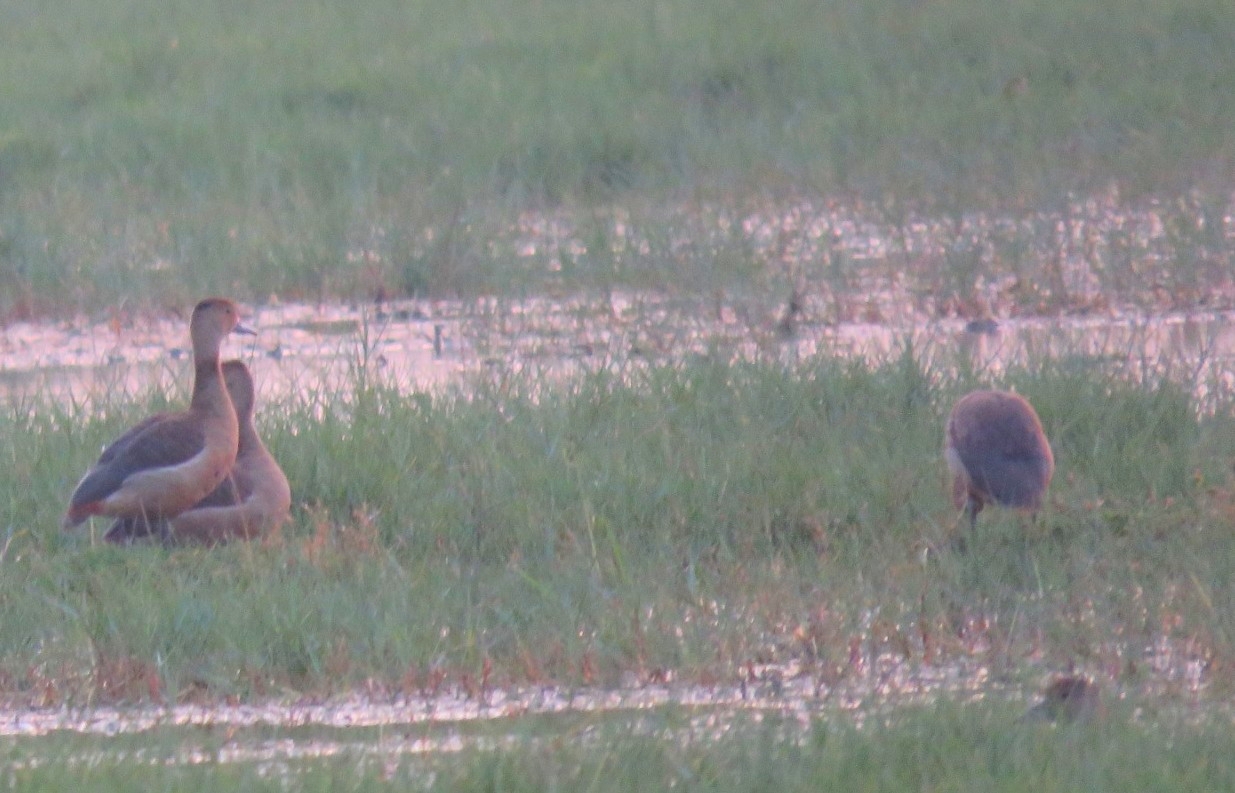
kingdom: Animalia
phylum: Chordata
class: Aves
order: Anseriformes
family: Anatidae
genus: Dendrocygna
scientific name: Dendrocygna javanica
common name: Lesser whistling-duck
